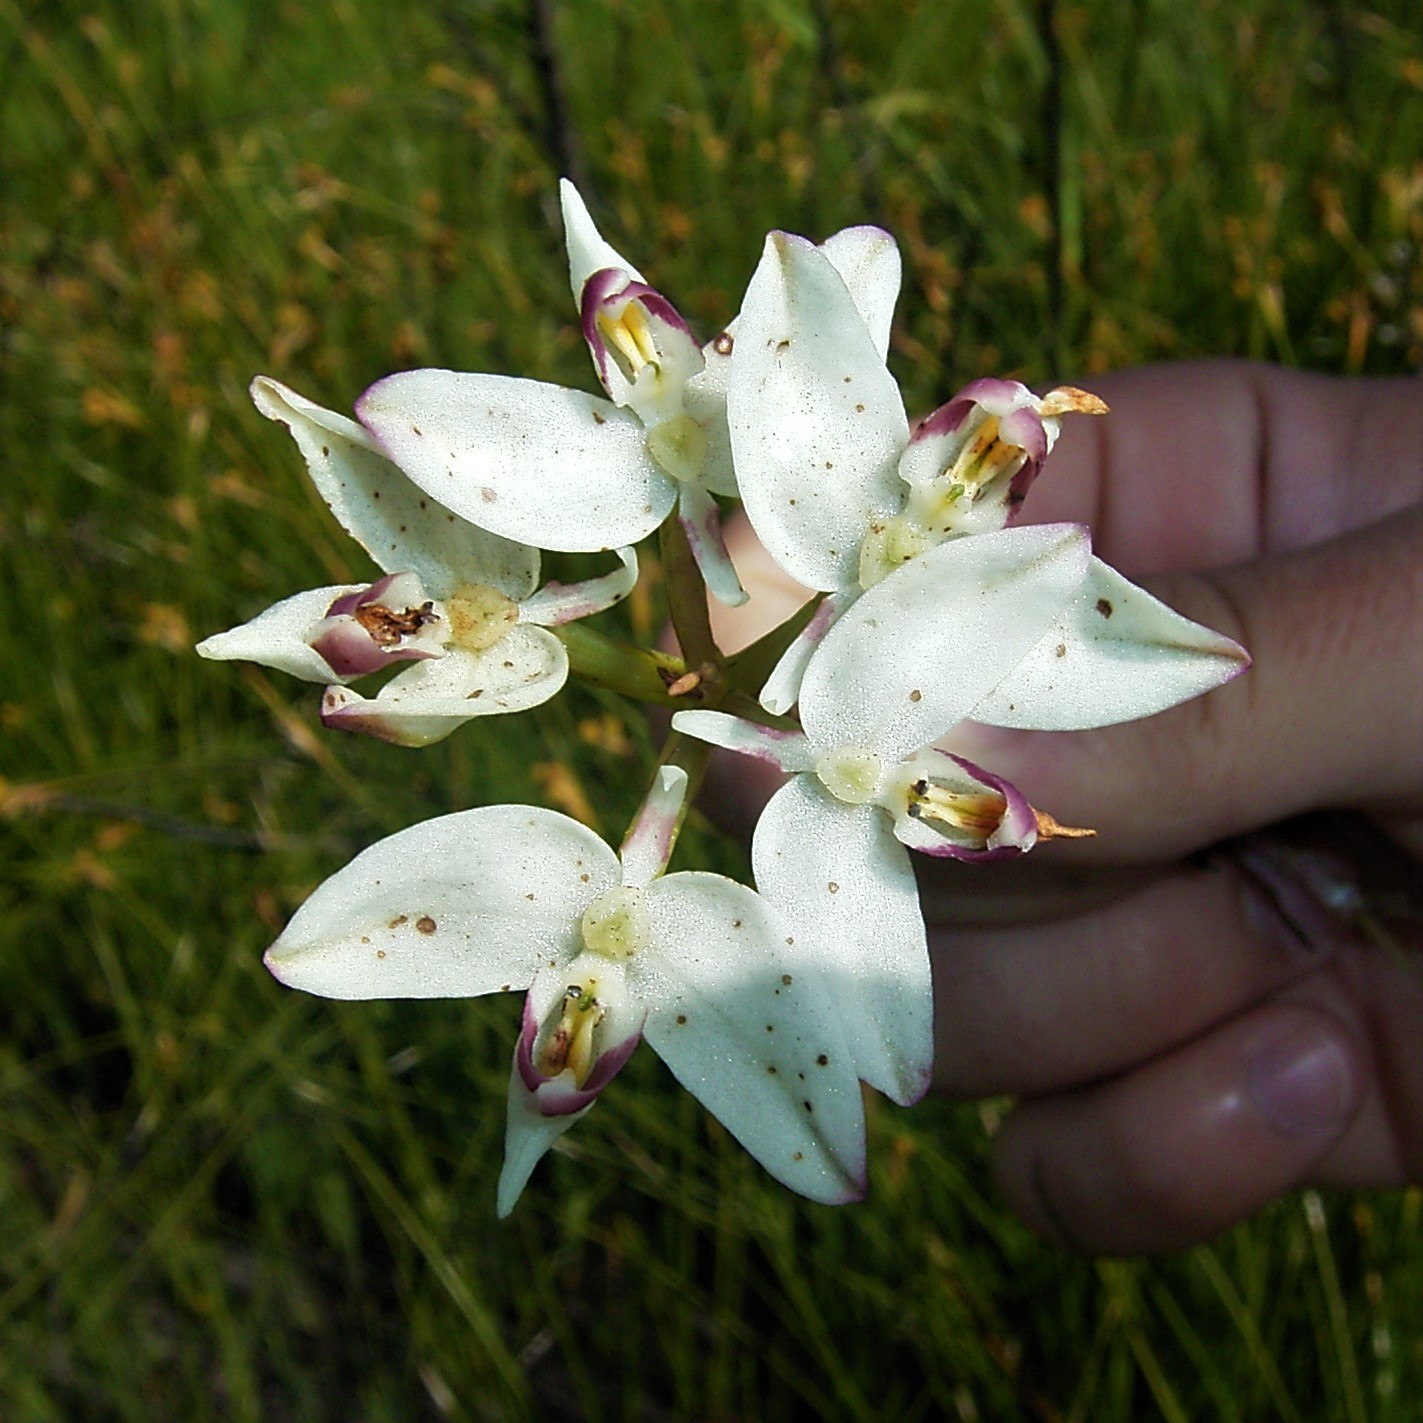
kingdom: Plantae
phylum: Tracheophyta
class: Liliopsida
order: Asparagales
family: Orchidaceae
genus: Disa
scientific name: Disa bivalvata
